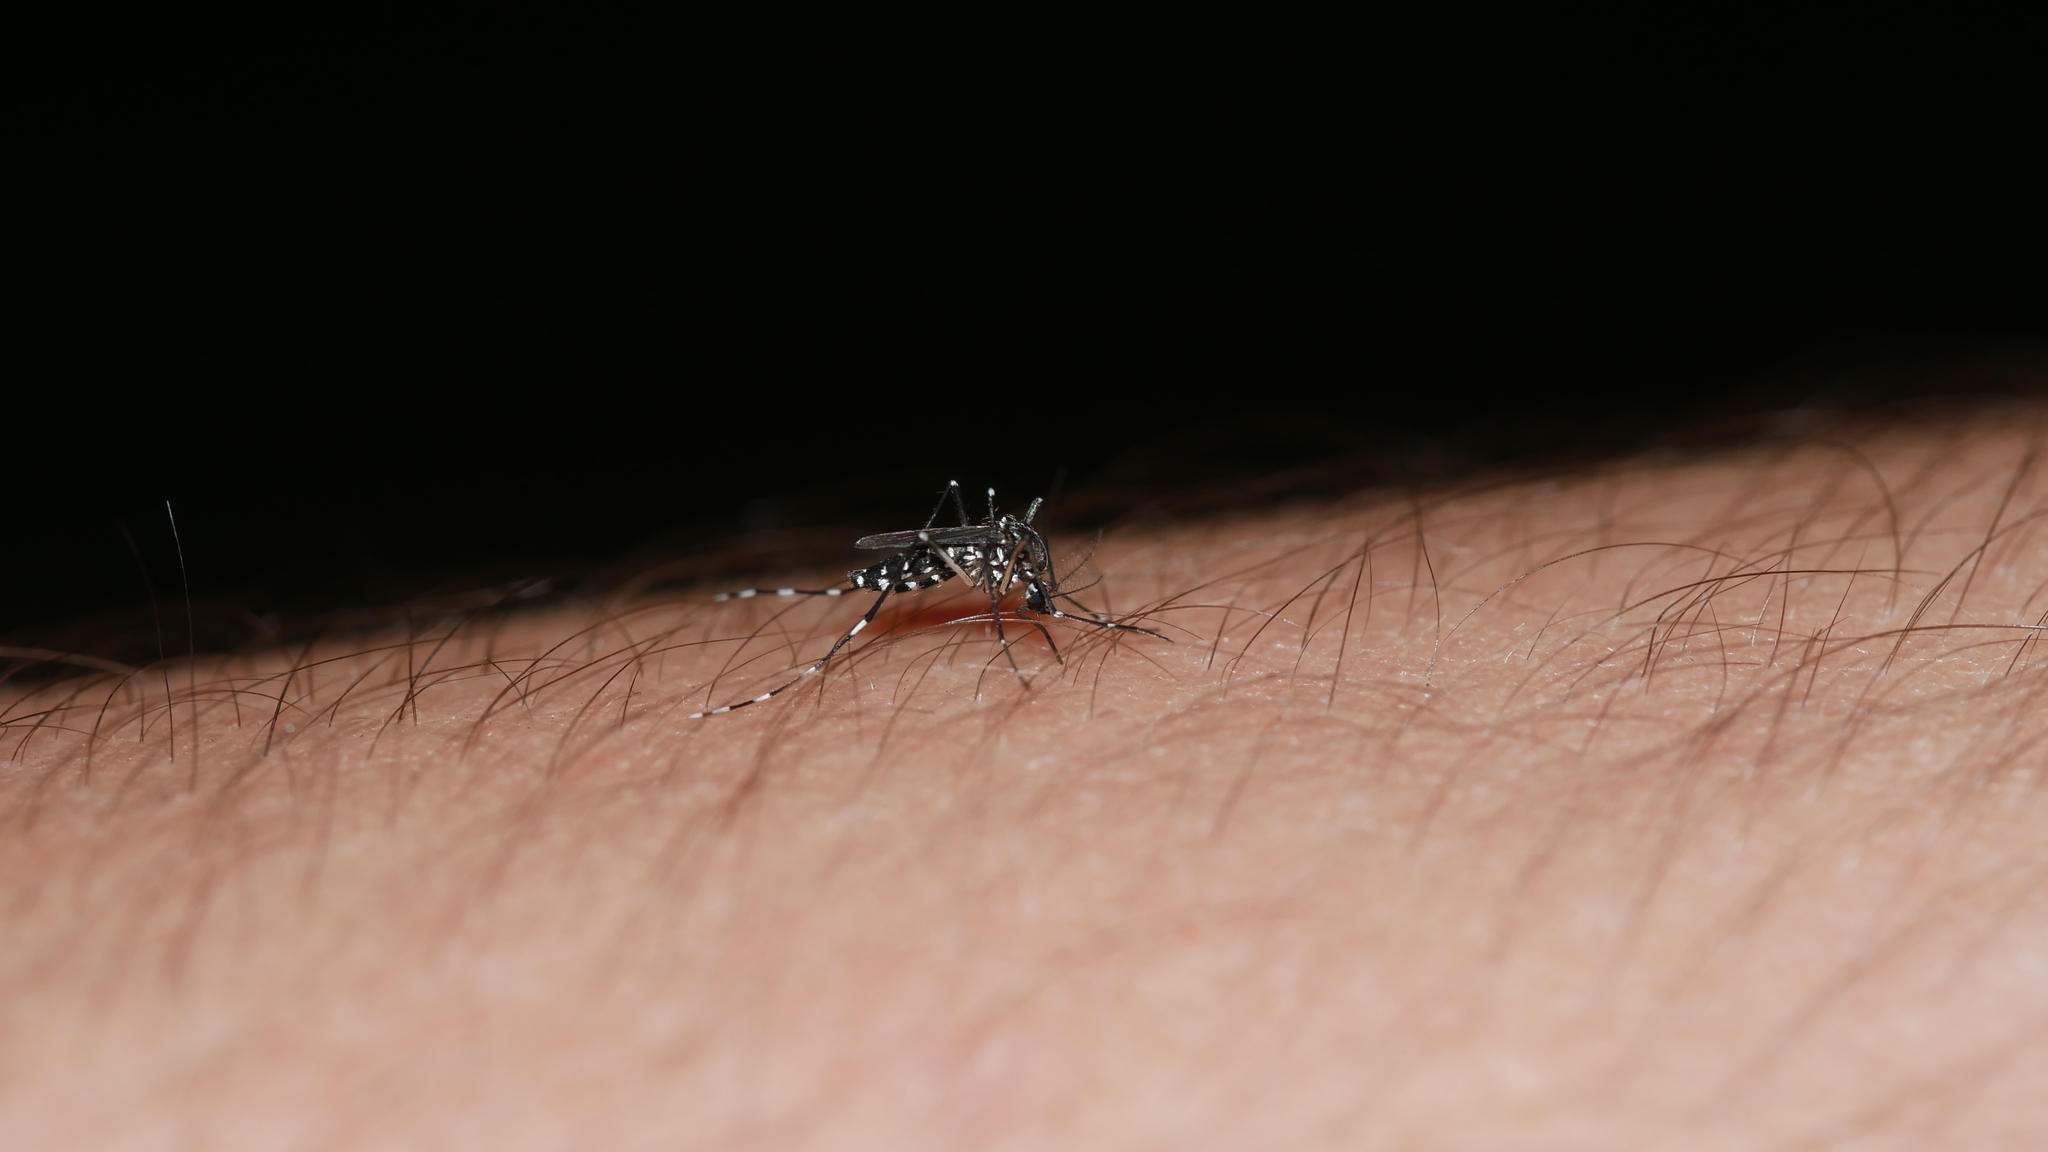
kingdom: Animalia
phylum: Arthropoda
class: Insecta
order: Diptera
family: Culicidae
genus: Aedes
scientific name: Aedes albopictus
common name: Tiger mosquito
